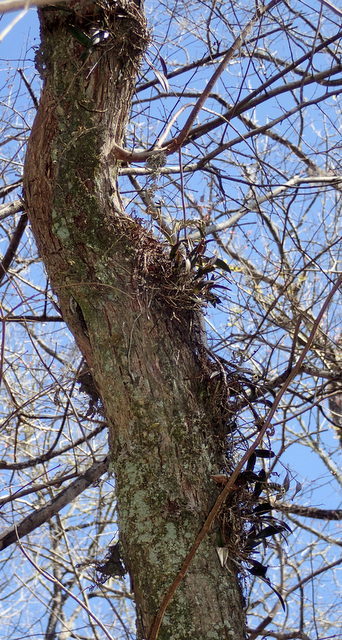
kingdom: Plantae
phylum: Tracheophyta
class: Liliopsida
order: Asparagales
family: Orchidaceae
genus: Epidendrum
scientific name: Epidendrum conopseum
